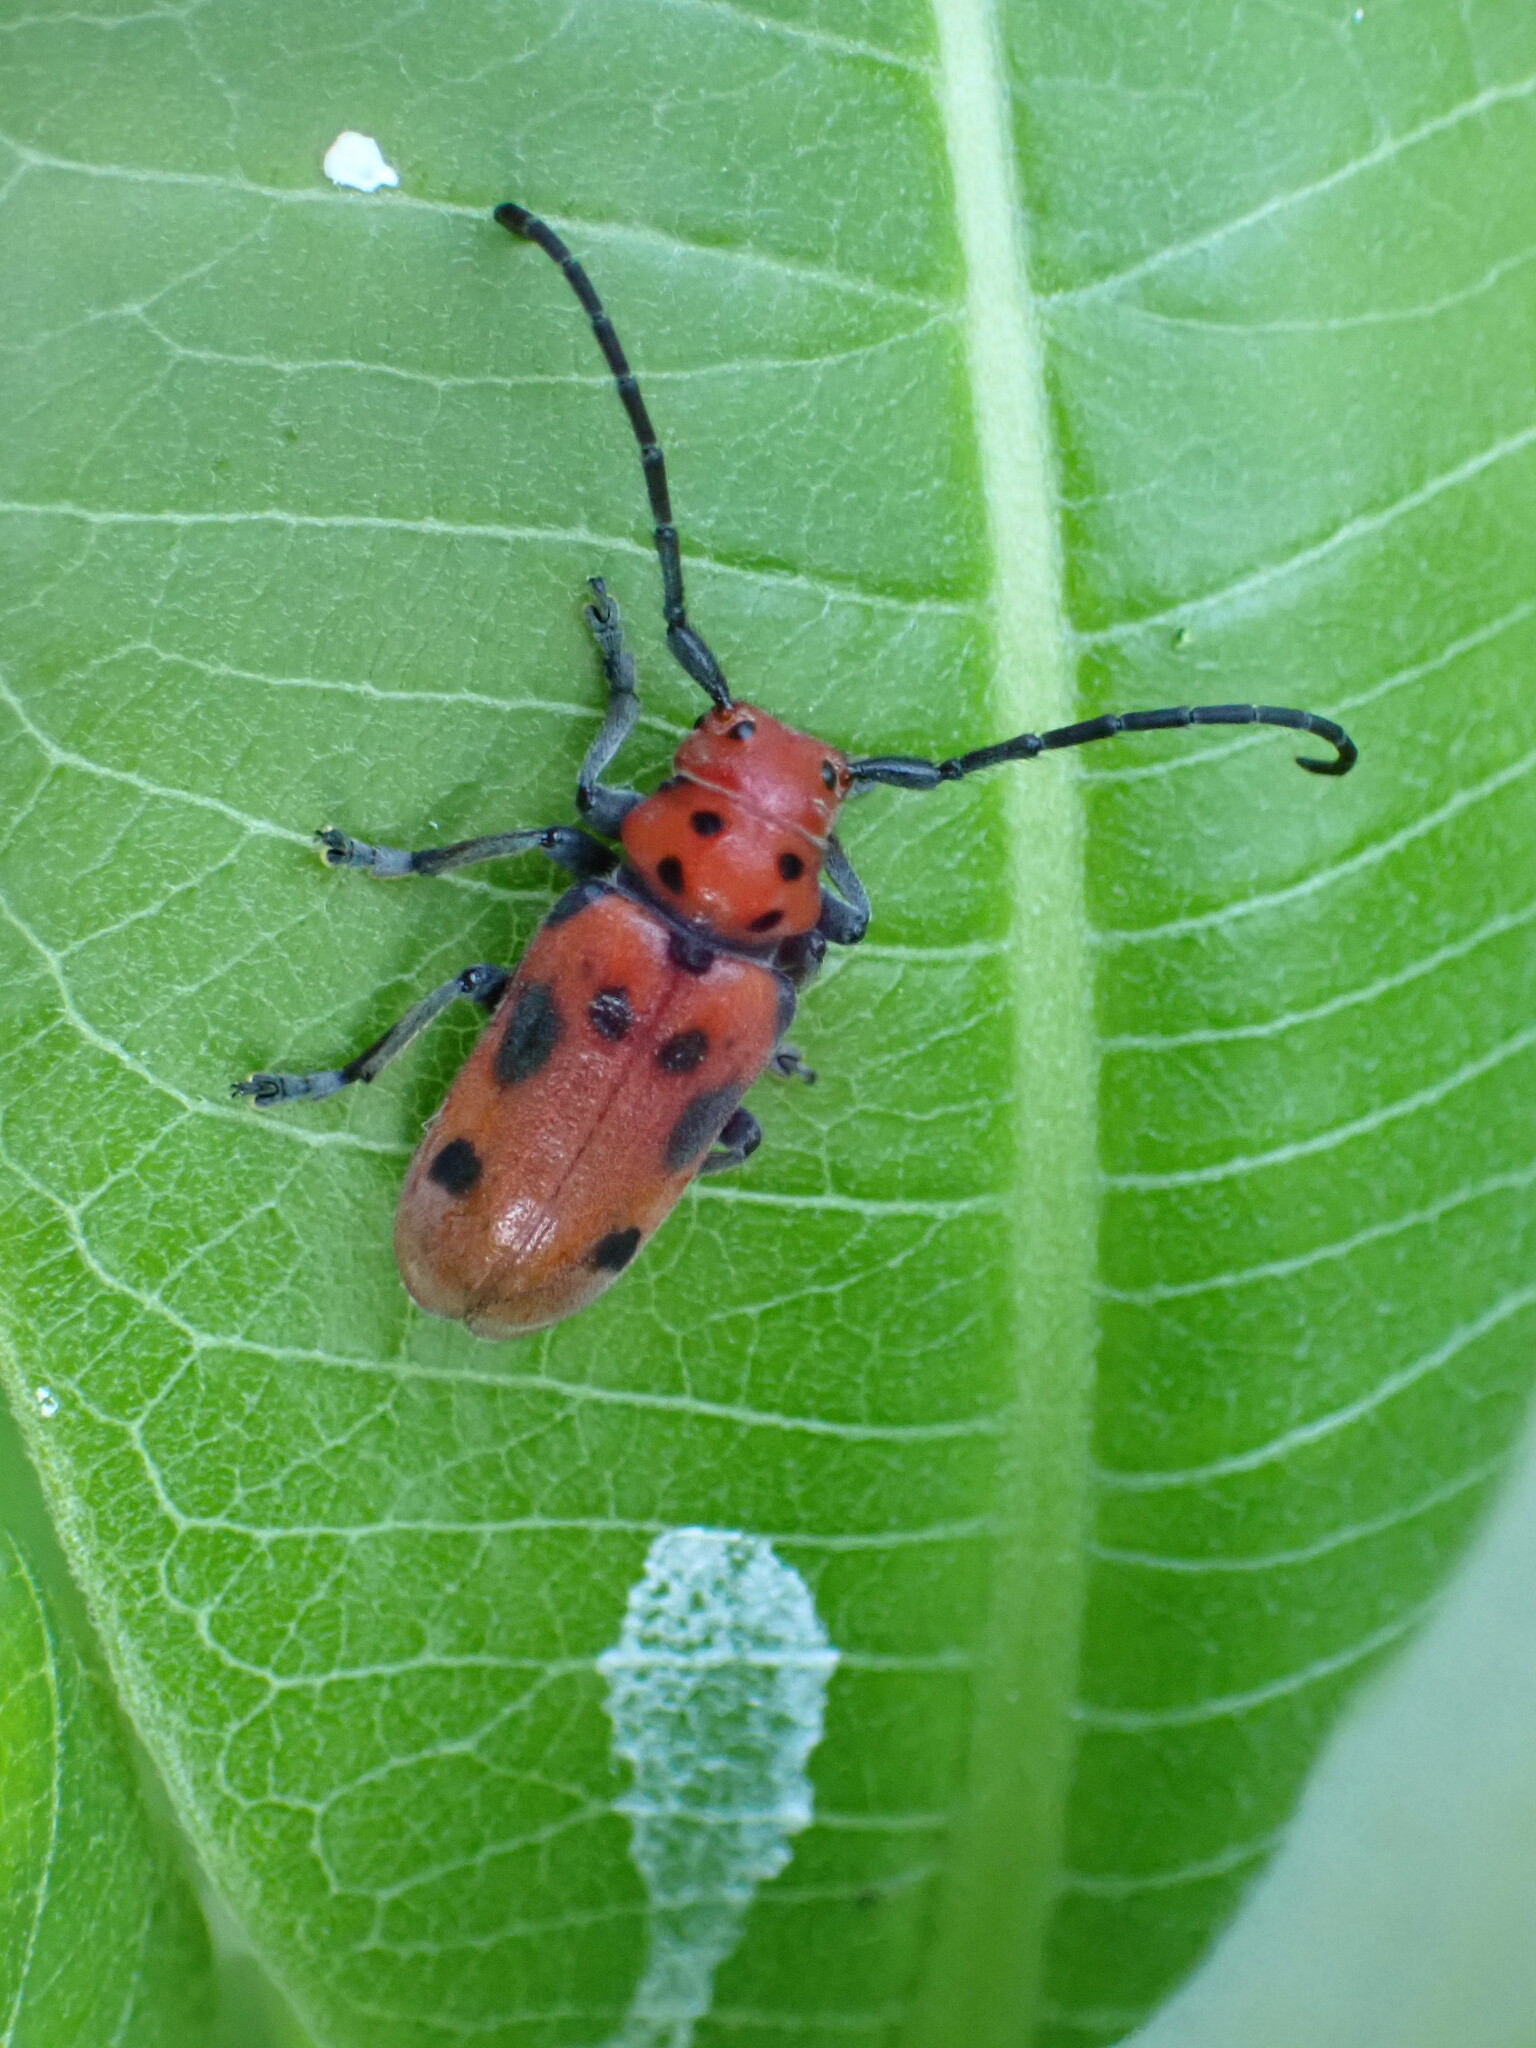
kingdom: Animalia
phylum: Arthropoda
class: Insecta
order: Coleoptera
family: Cerambycidae
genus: Tetraopes
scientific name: Tetraopes tetrophthalmus
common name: Red milkweed beetle
